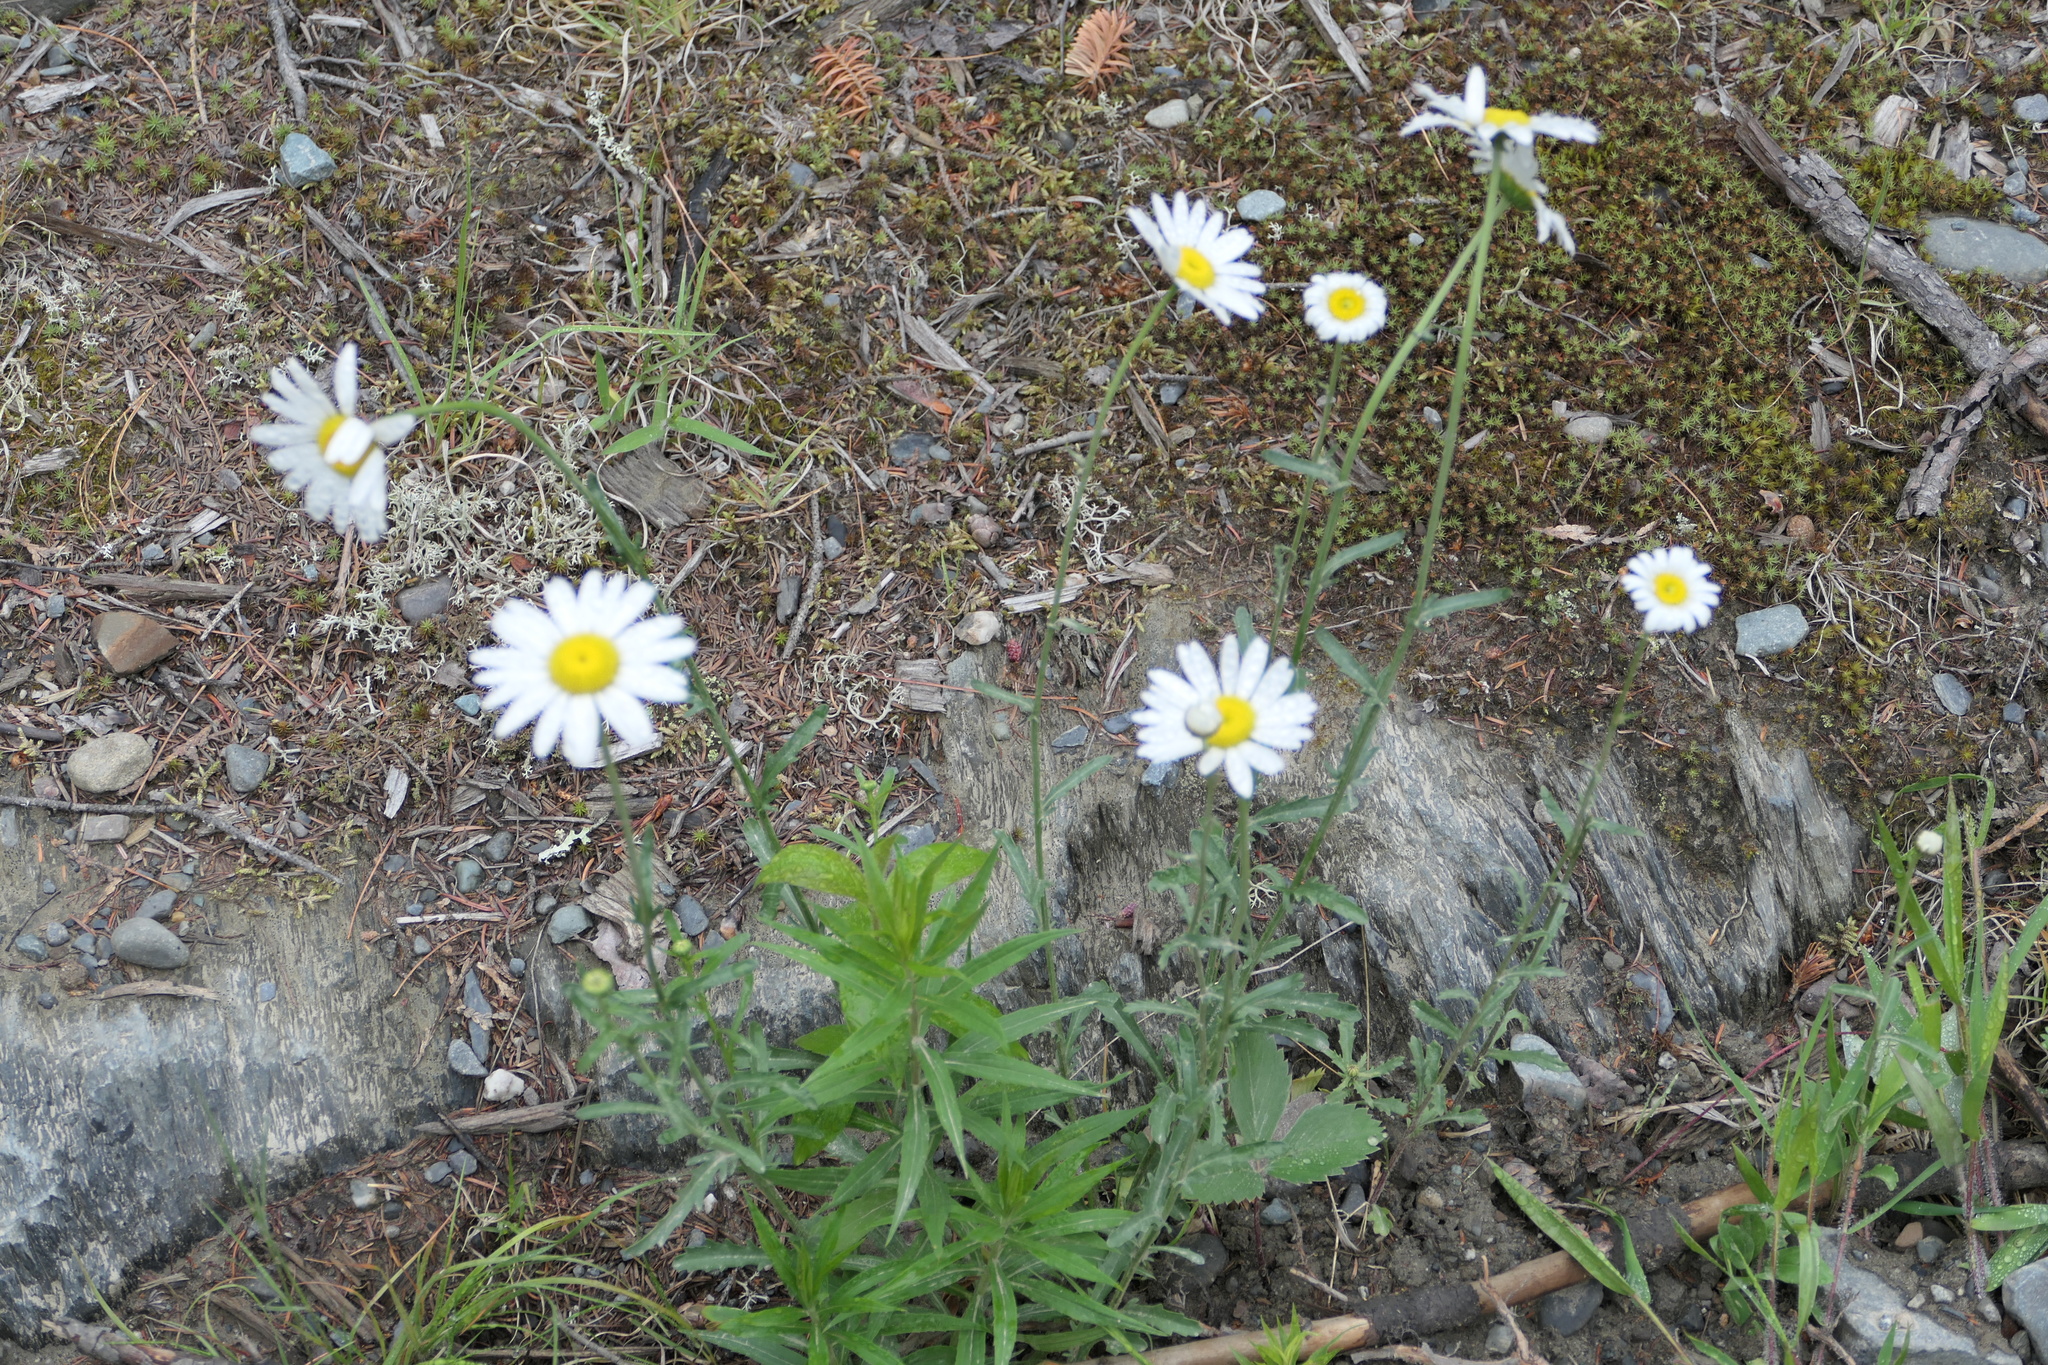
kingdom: Plantae
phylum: Tracheophyta
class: Magnoliopsida
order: Asterales
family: Asteraceae
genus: Leucanthemum
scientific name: Leucanthemum vulgare
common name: Oxeye daisy
